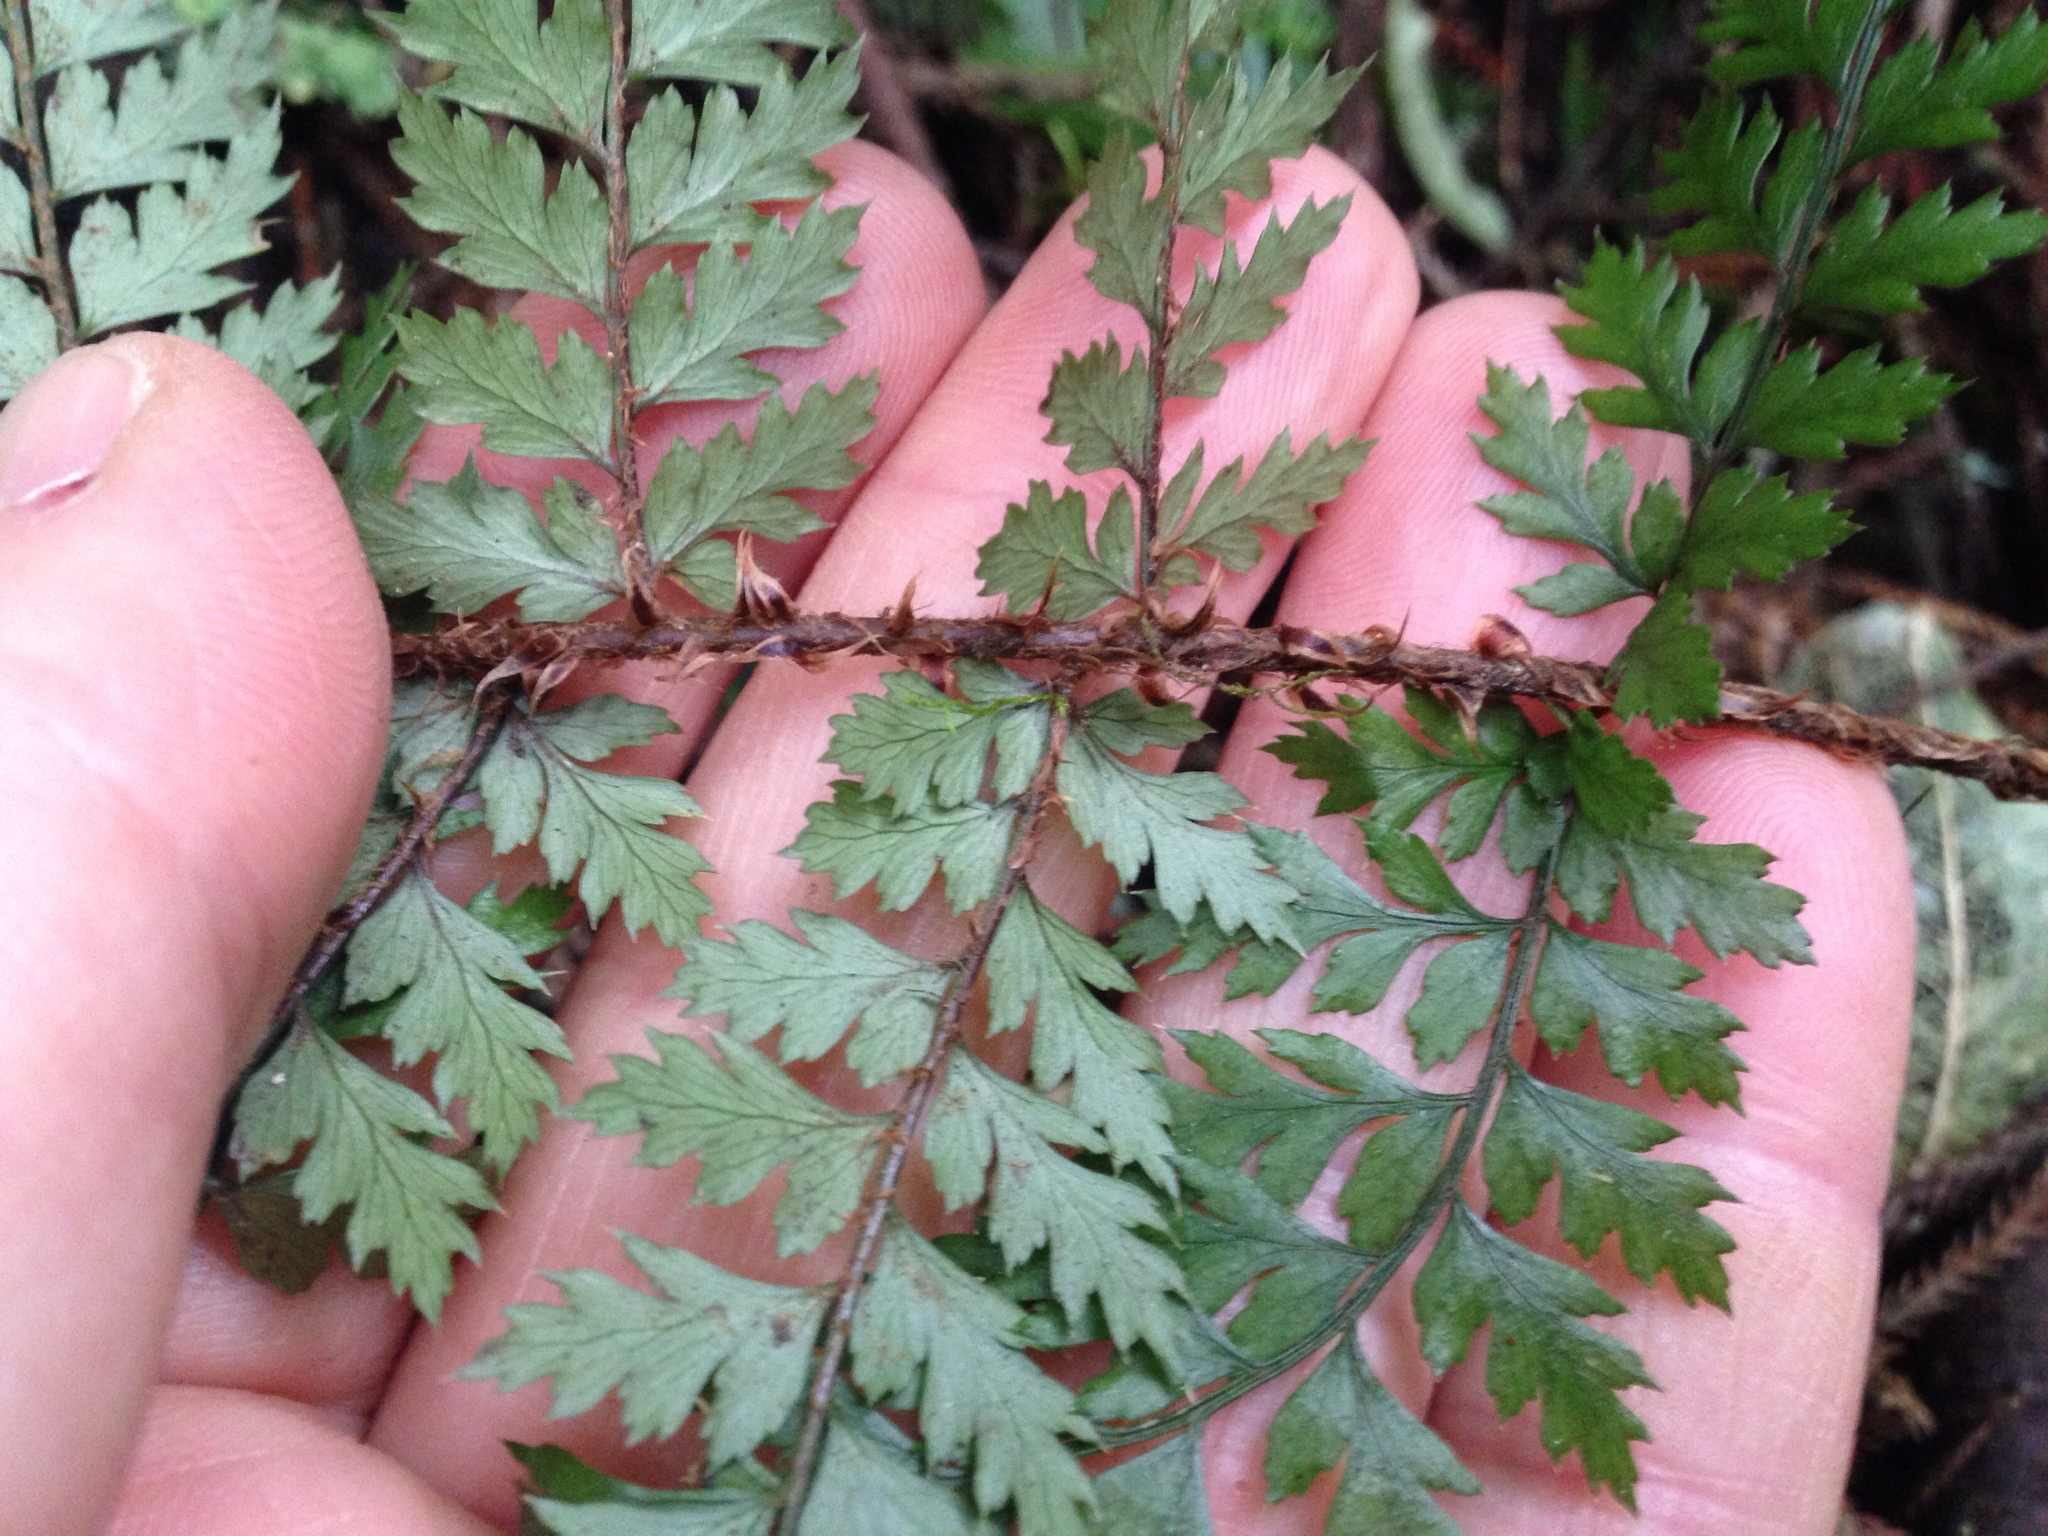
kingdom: Plantae
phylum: Tracheophyta
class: Polypodiopsida
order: Polypodiales
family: Dryopteridaceae
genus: Polystichum
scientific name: Polystichum vestitum
